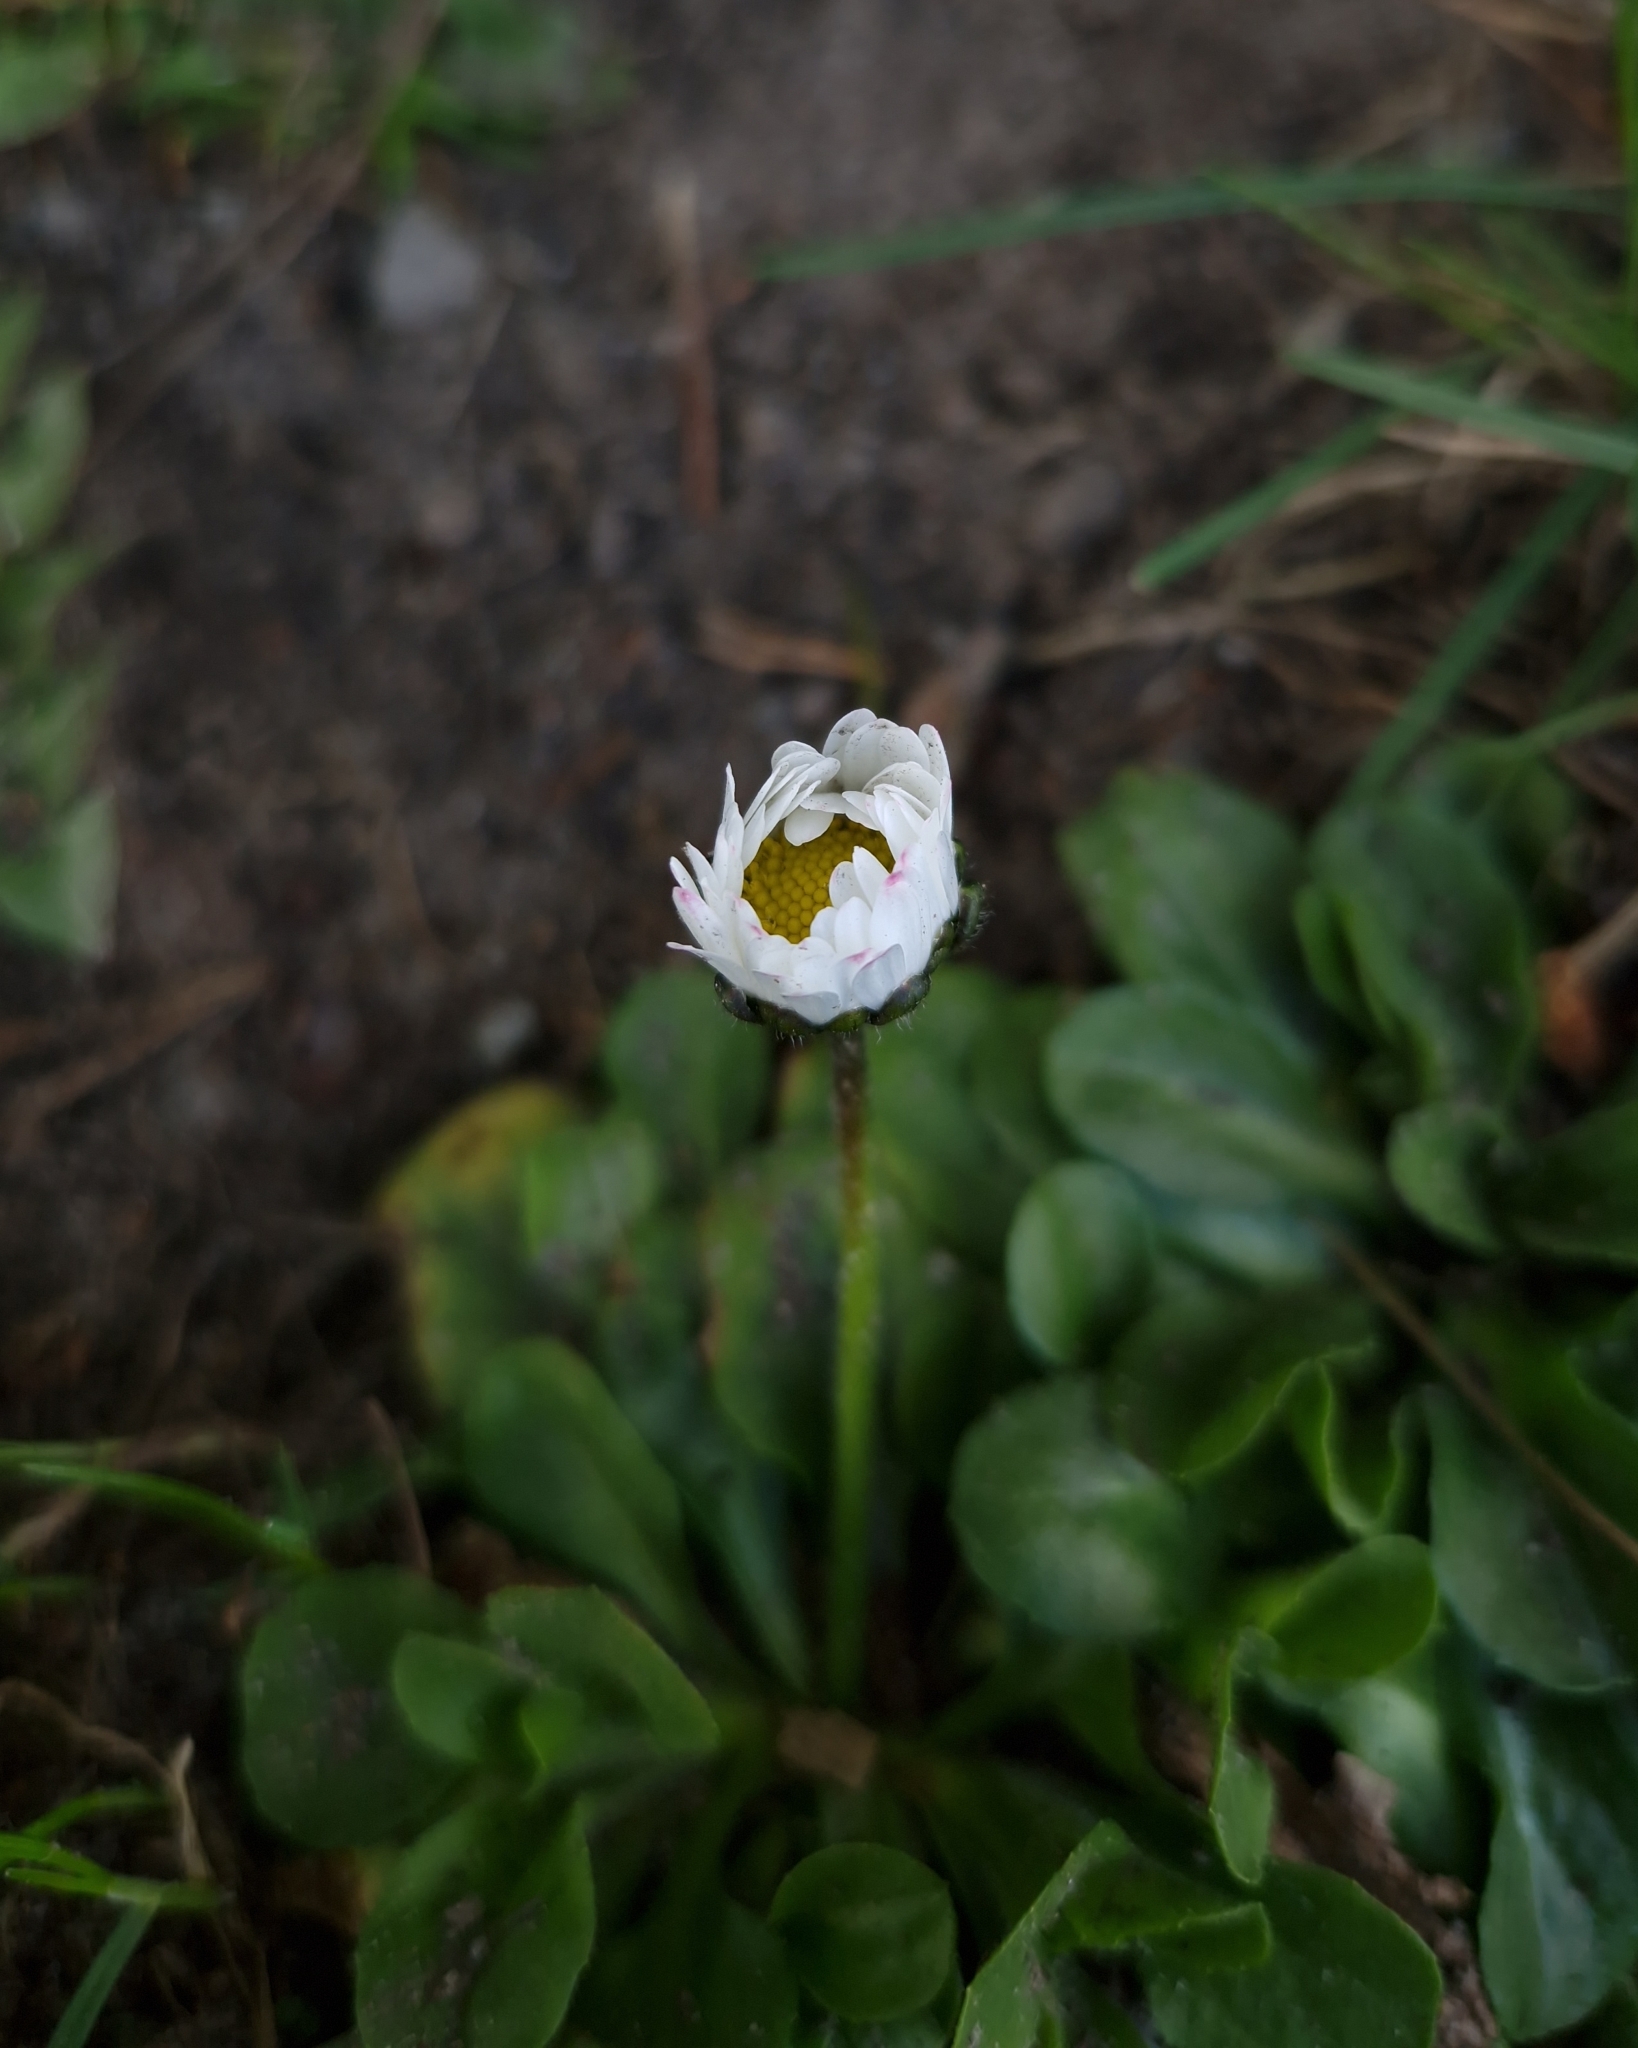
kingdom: Plantae
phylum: Tracheophyta
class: Magnoliopsida
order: Asterales
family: Asteraceae
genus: Bellis
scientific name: Bellis perennis
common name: Lawndaisy
